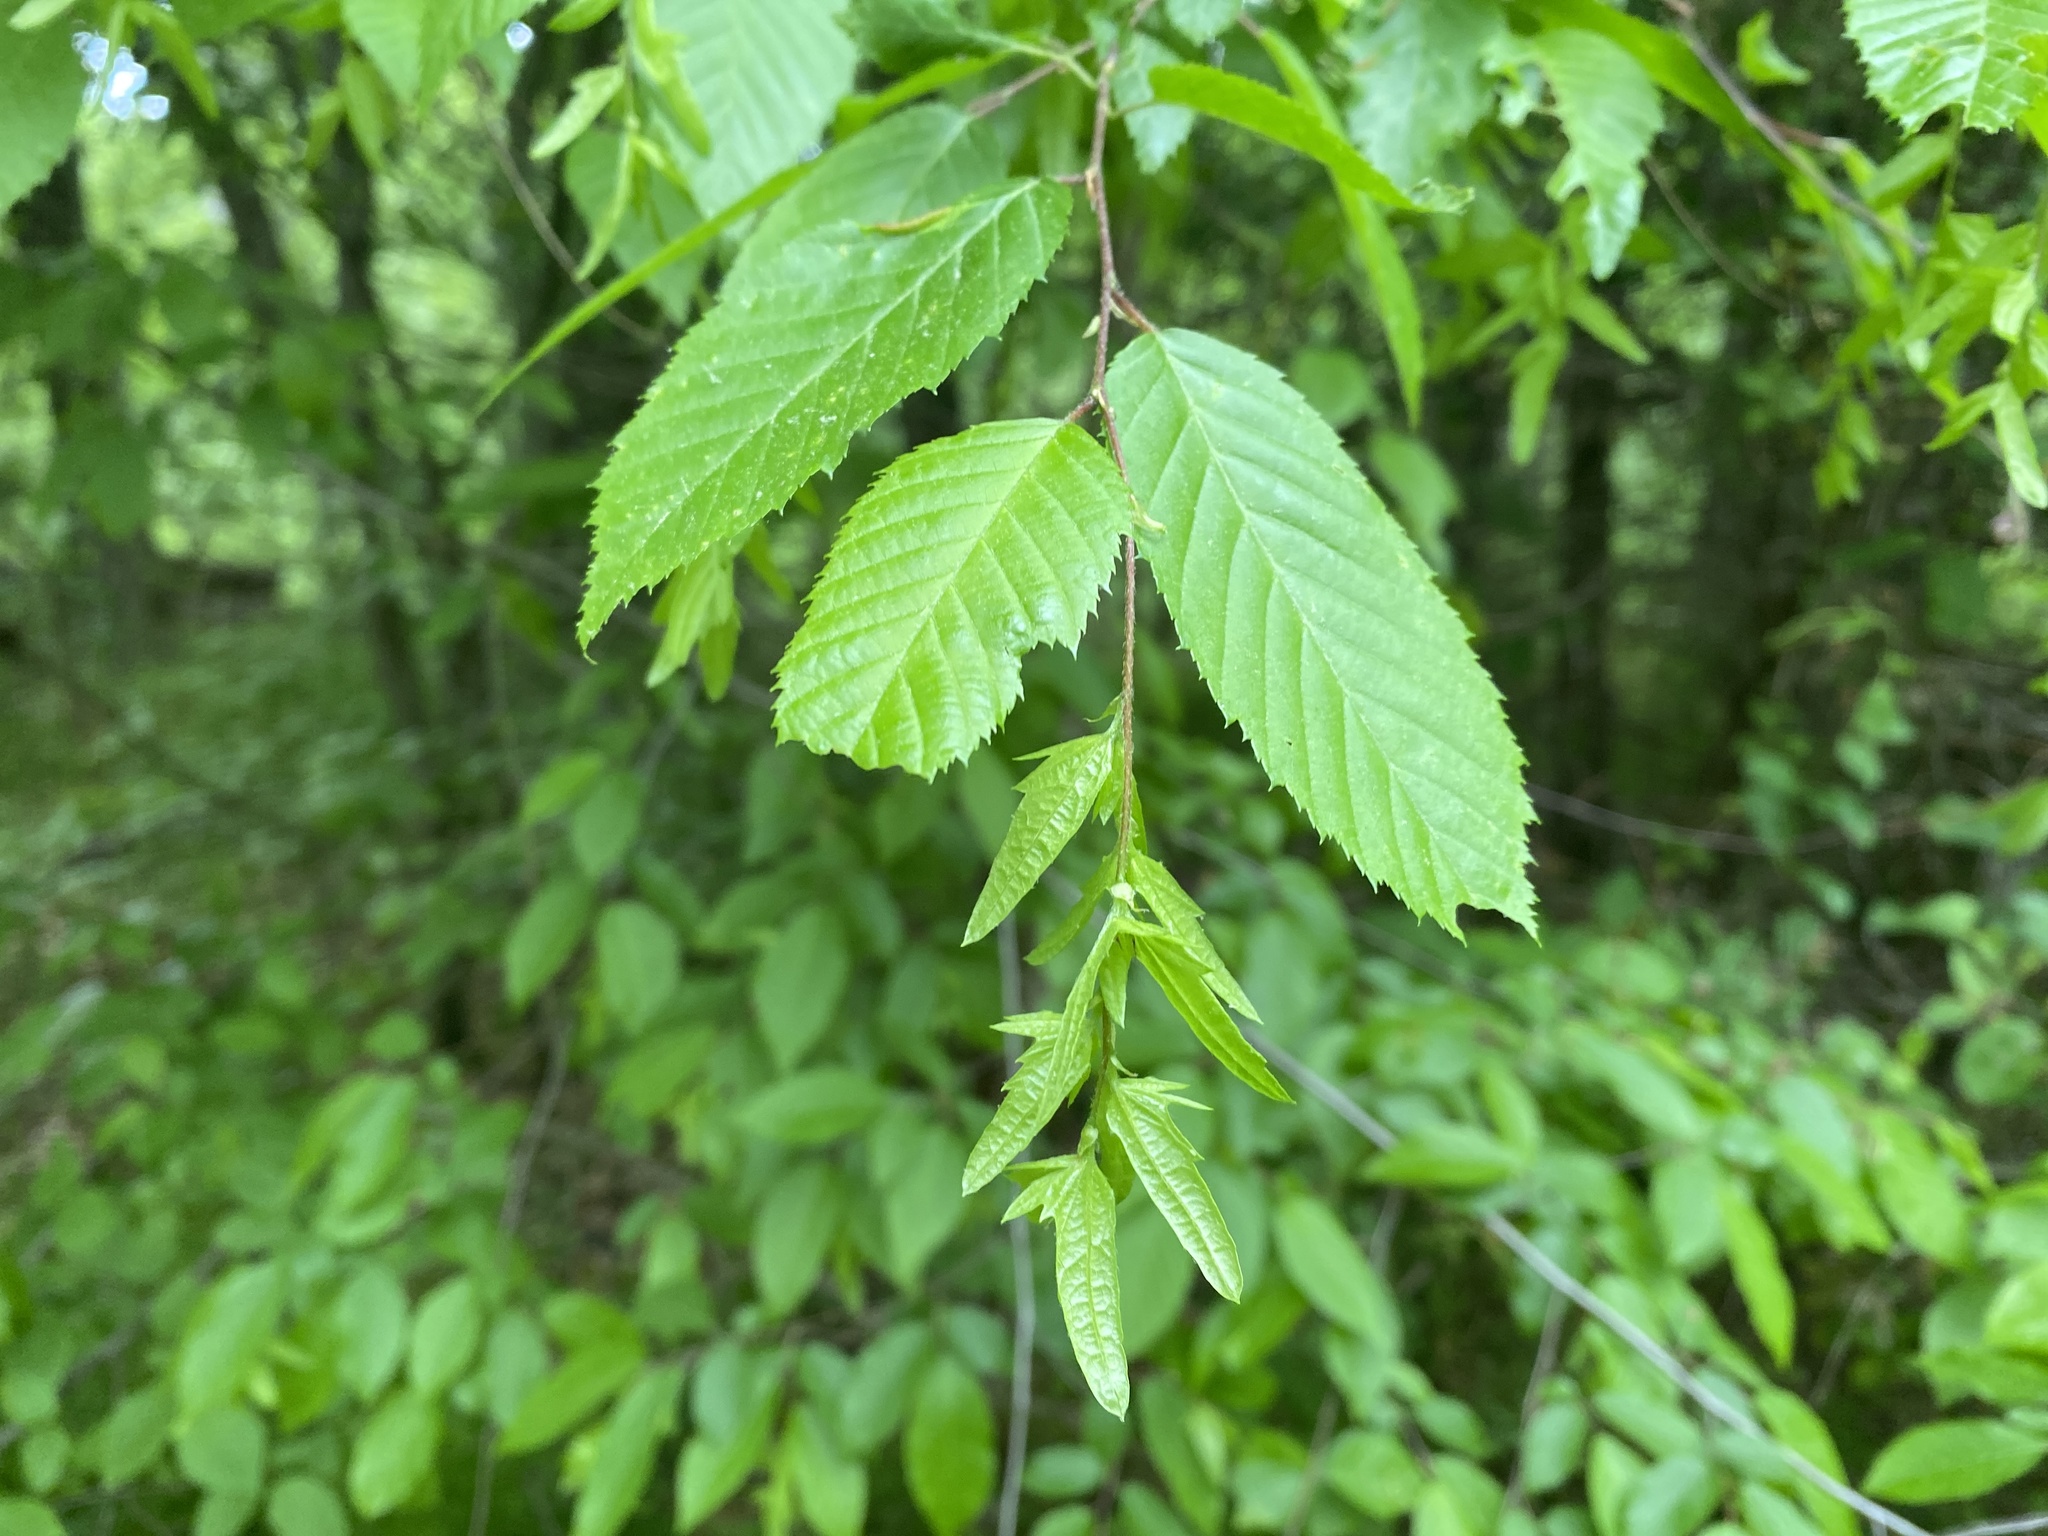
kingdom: Plantae
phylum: Tracheophyta
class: Magnoliopsida
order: Fagales
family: Betulaceae
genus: Carpinus
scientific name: Carpinus caroliniana
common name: American hornbeam
